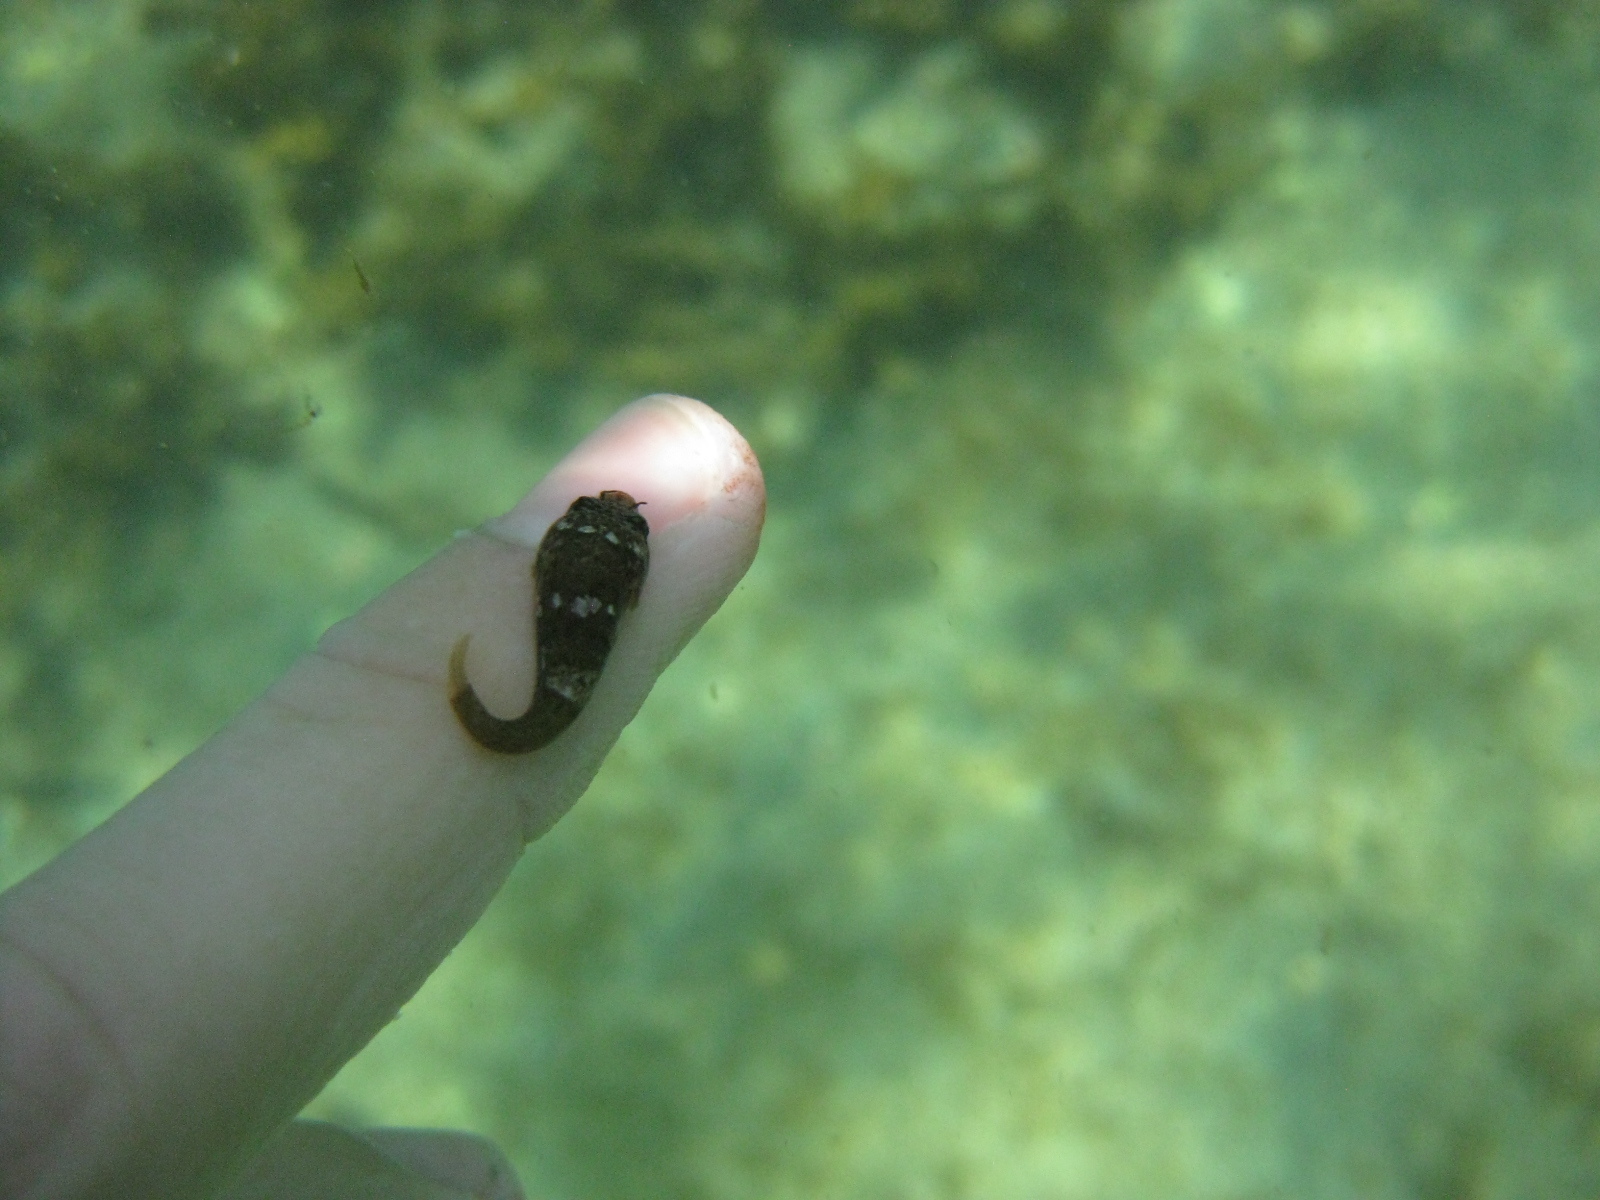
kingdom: Animalia
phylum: Chordata
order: Gobiesociformes
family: Gobiesocidae
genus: Trachelochismus
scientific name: Trachelochismus melobesia
